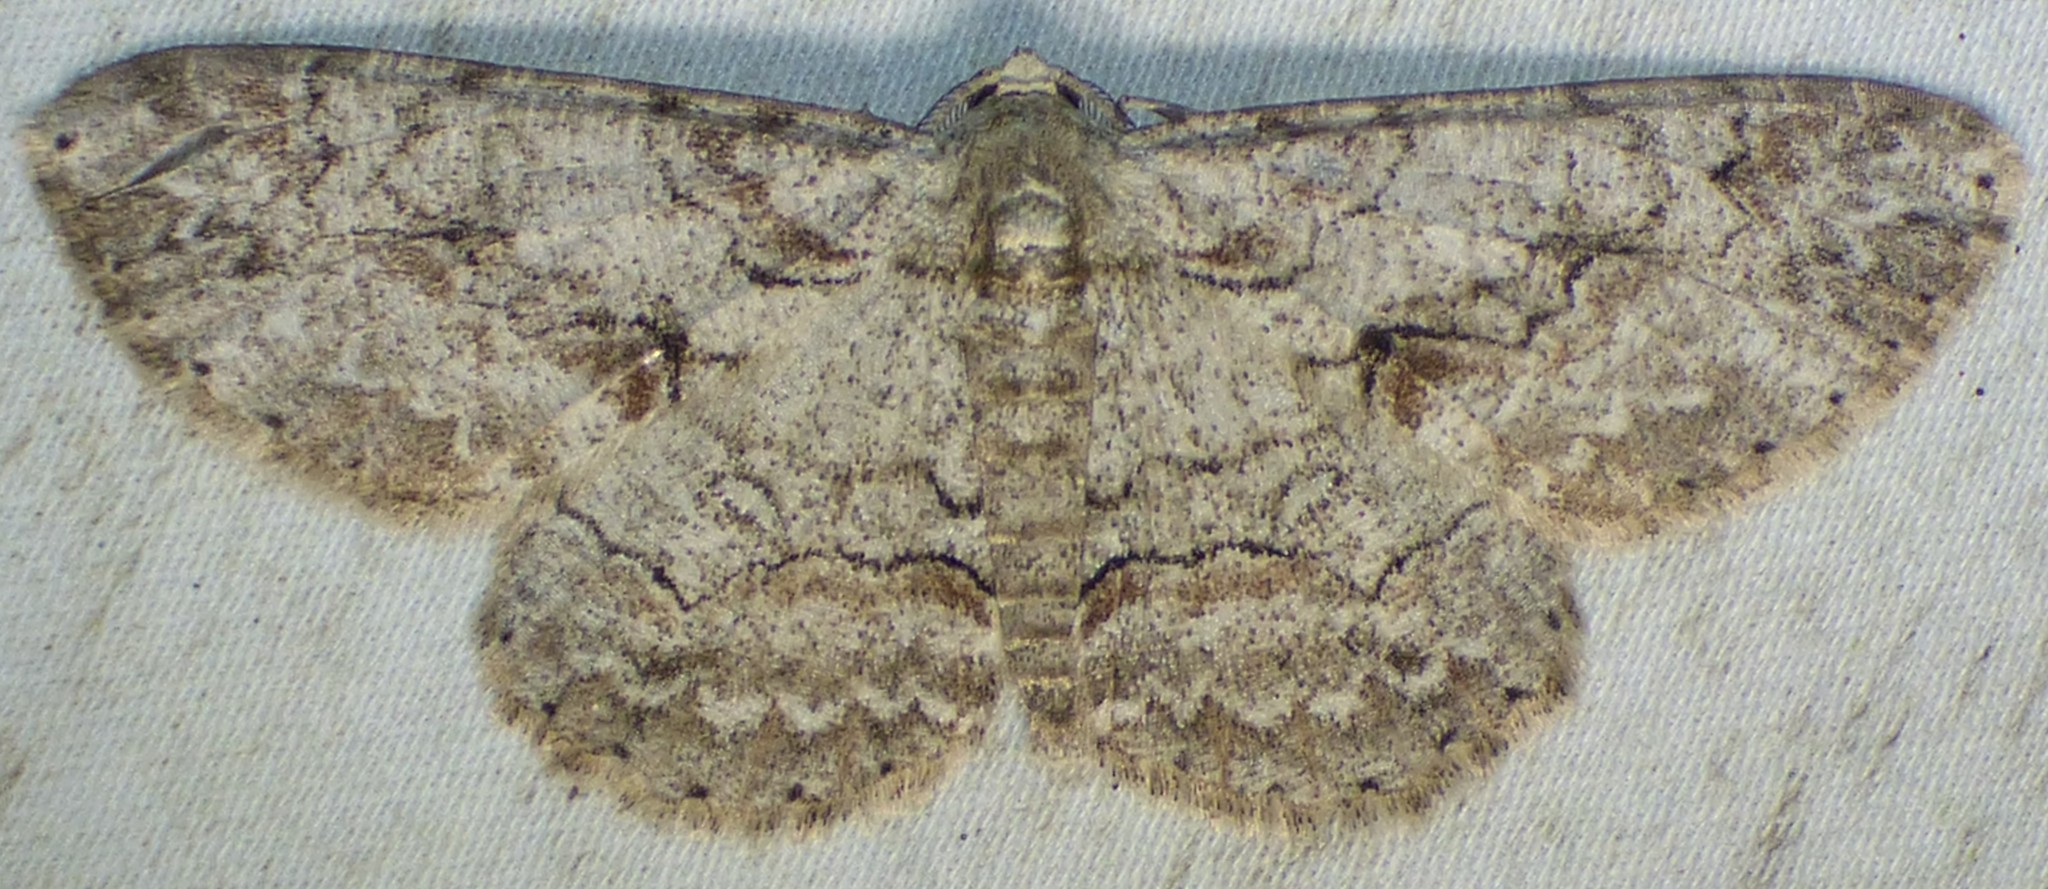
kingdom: Animalia
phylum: Arthropoda
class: Insecta
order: Lepidoptera
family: Geometridae
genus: Iridopsis
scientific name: Iridopsis defectaria
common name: Brown-shaded gray
